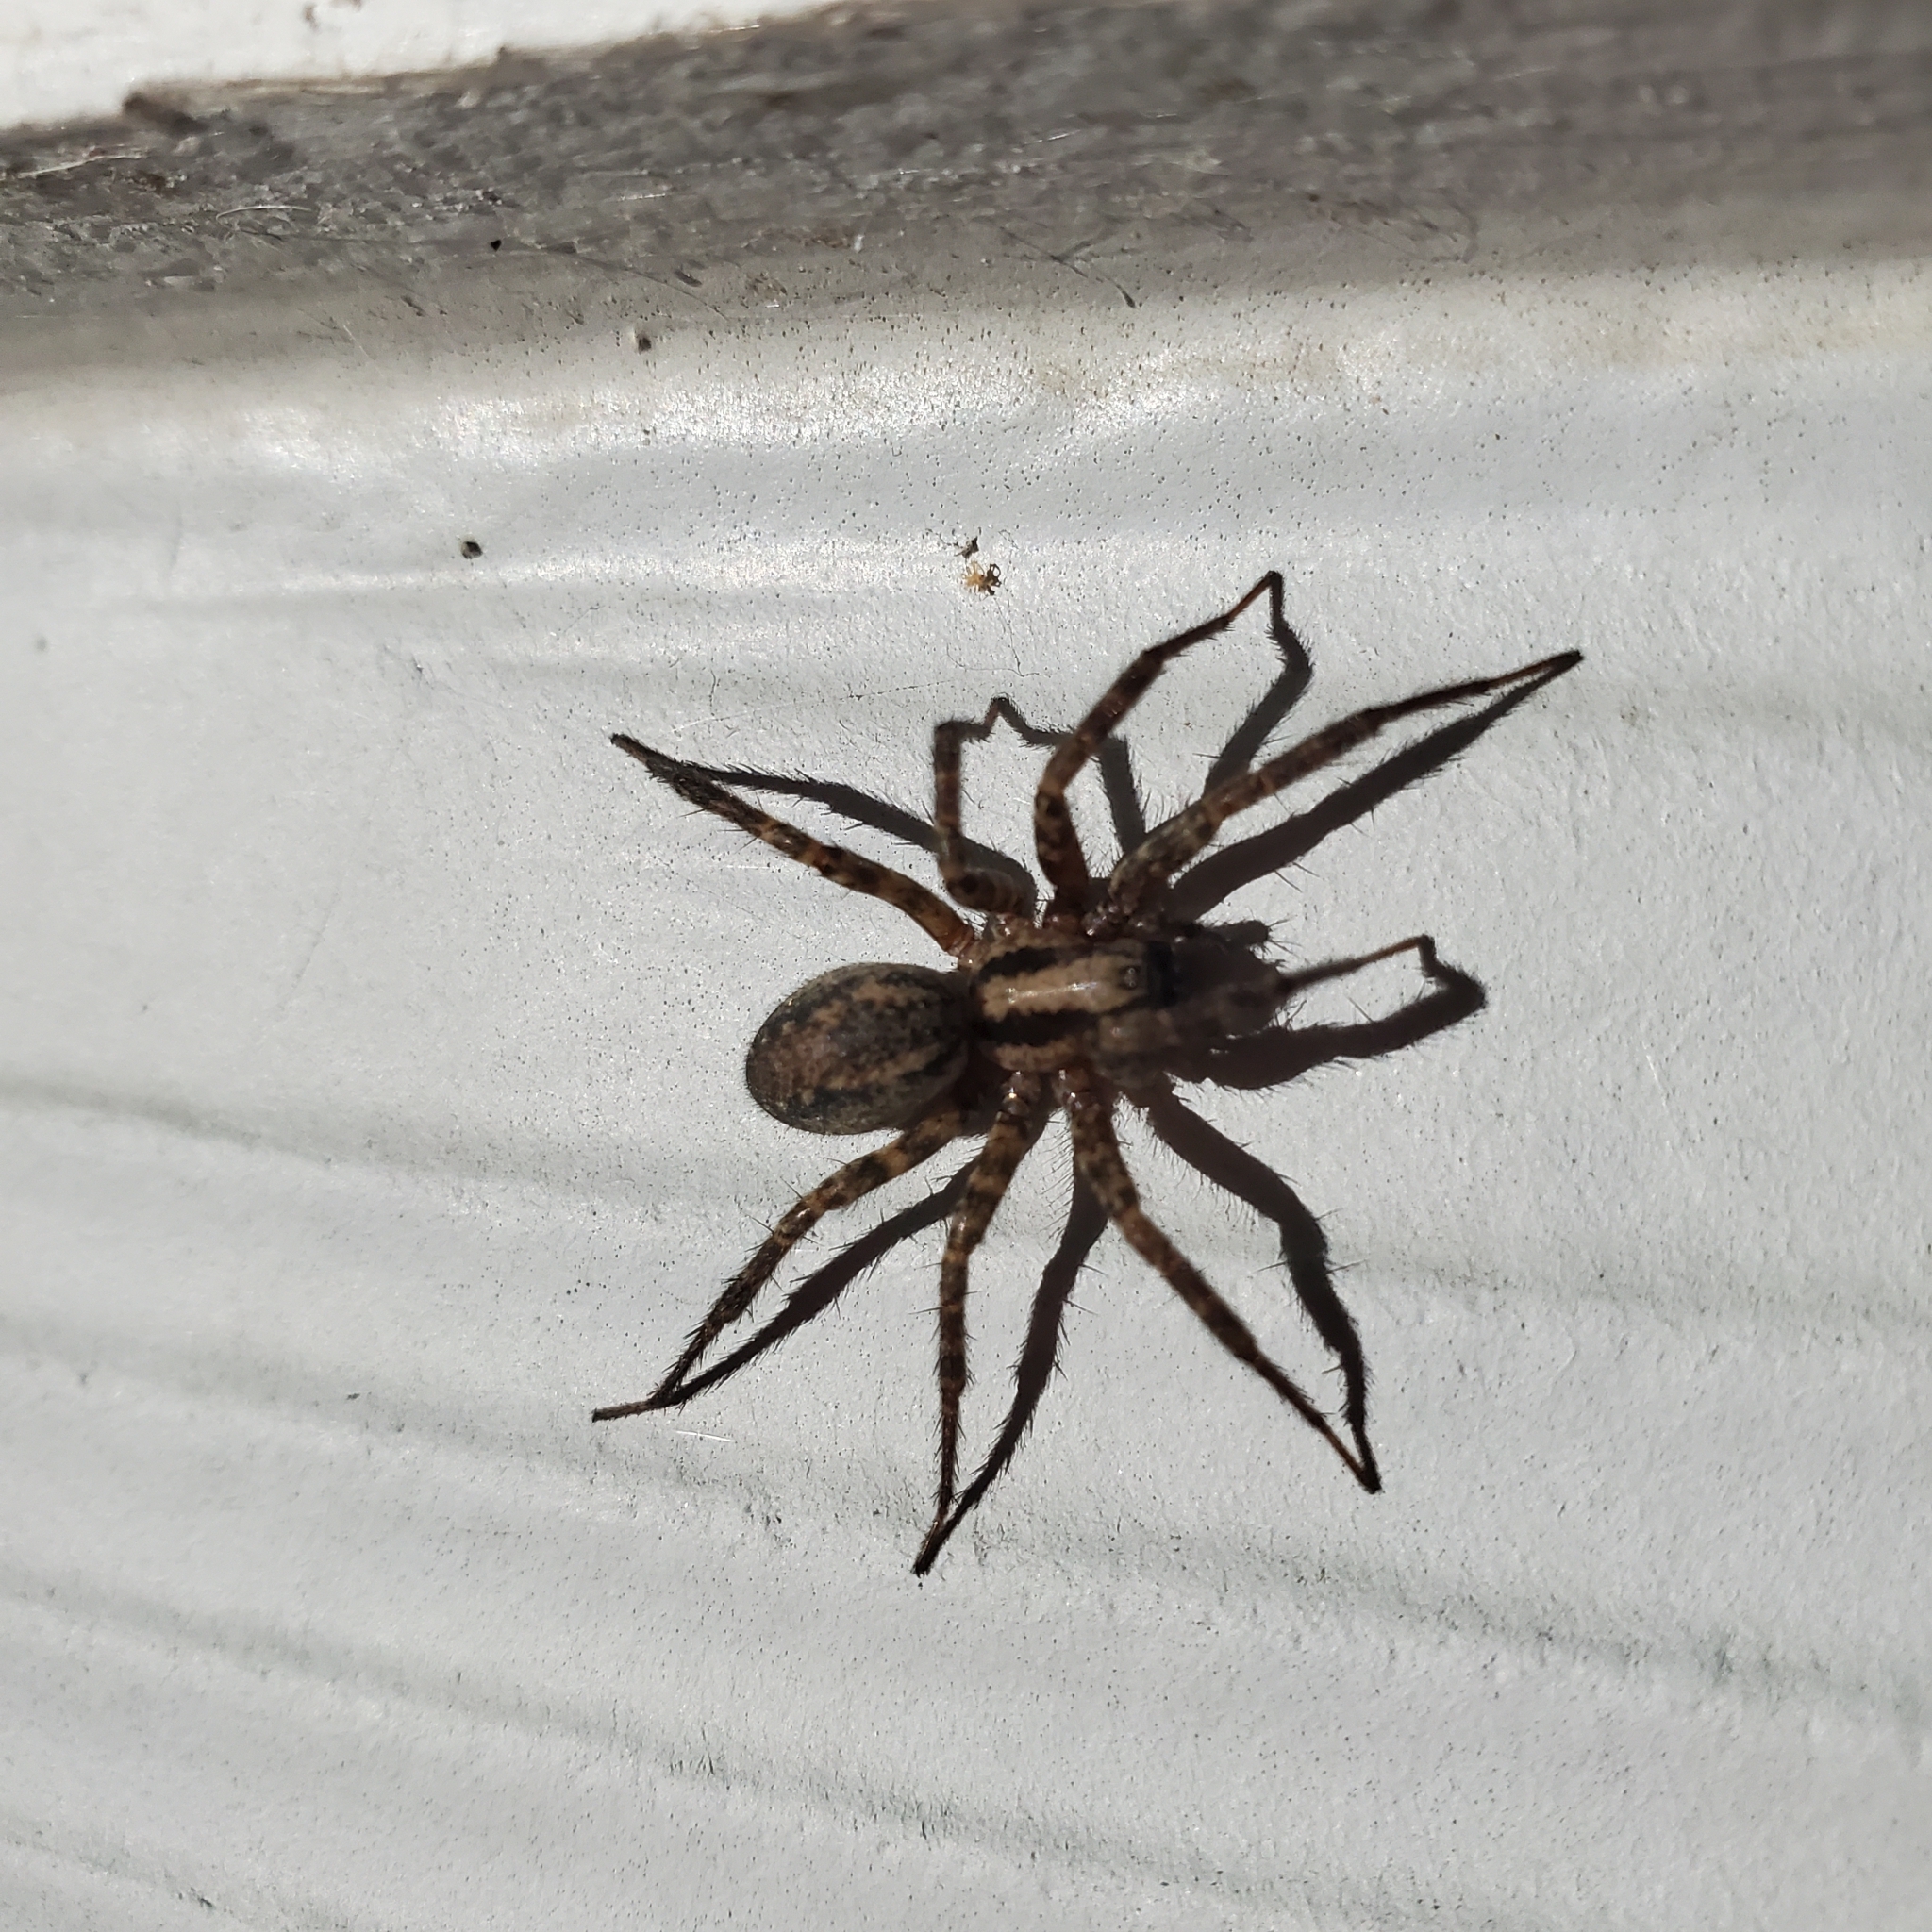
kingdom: Animalia
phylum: Arthropoda
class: Arachnida
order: Araneae
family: Agelenidae
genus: Hololena
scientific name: Hololena
